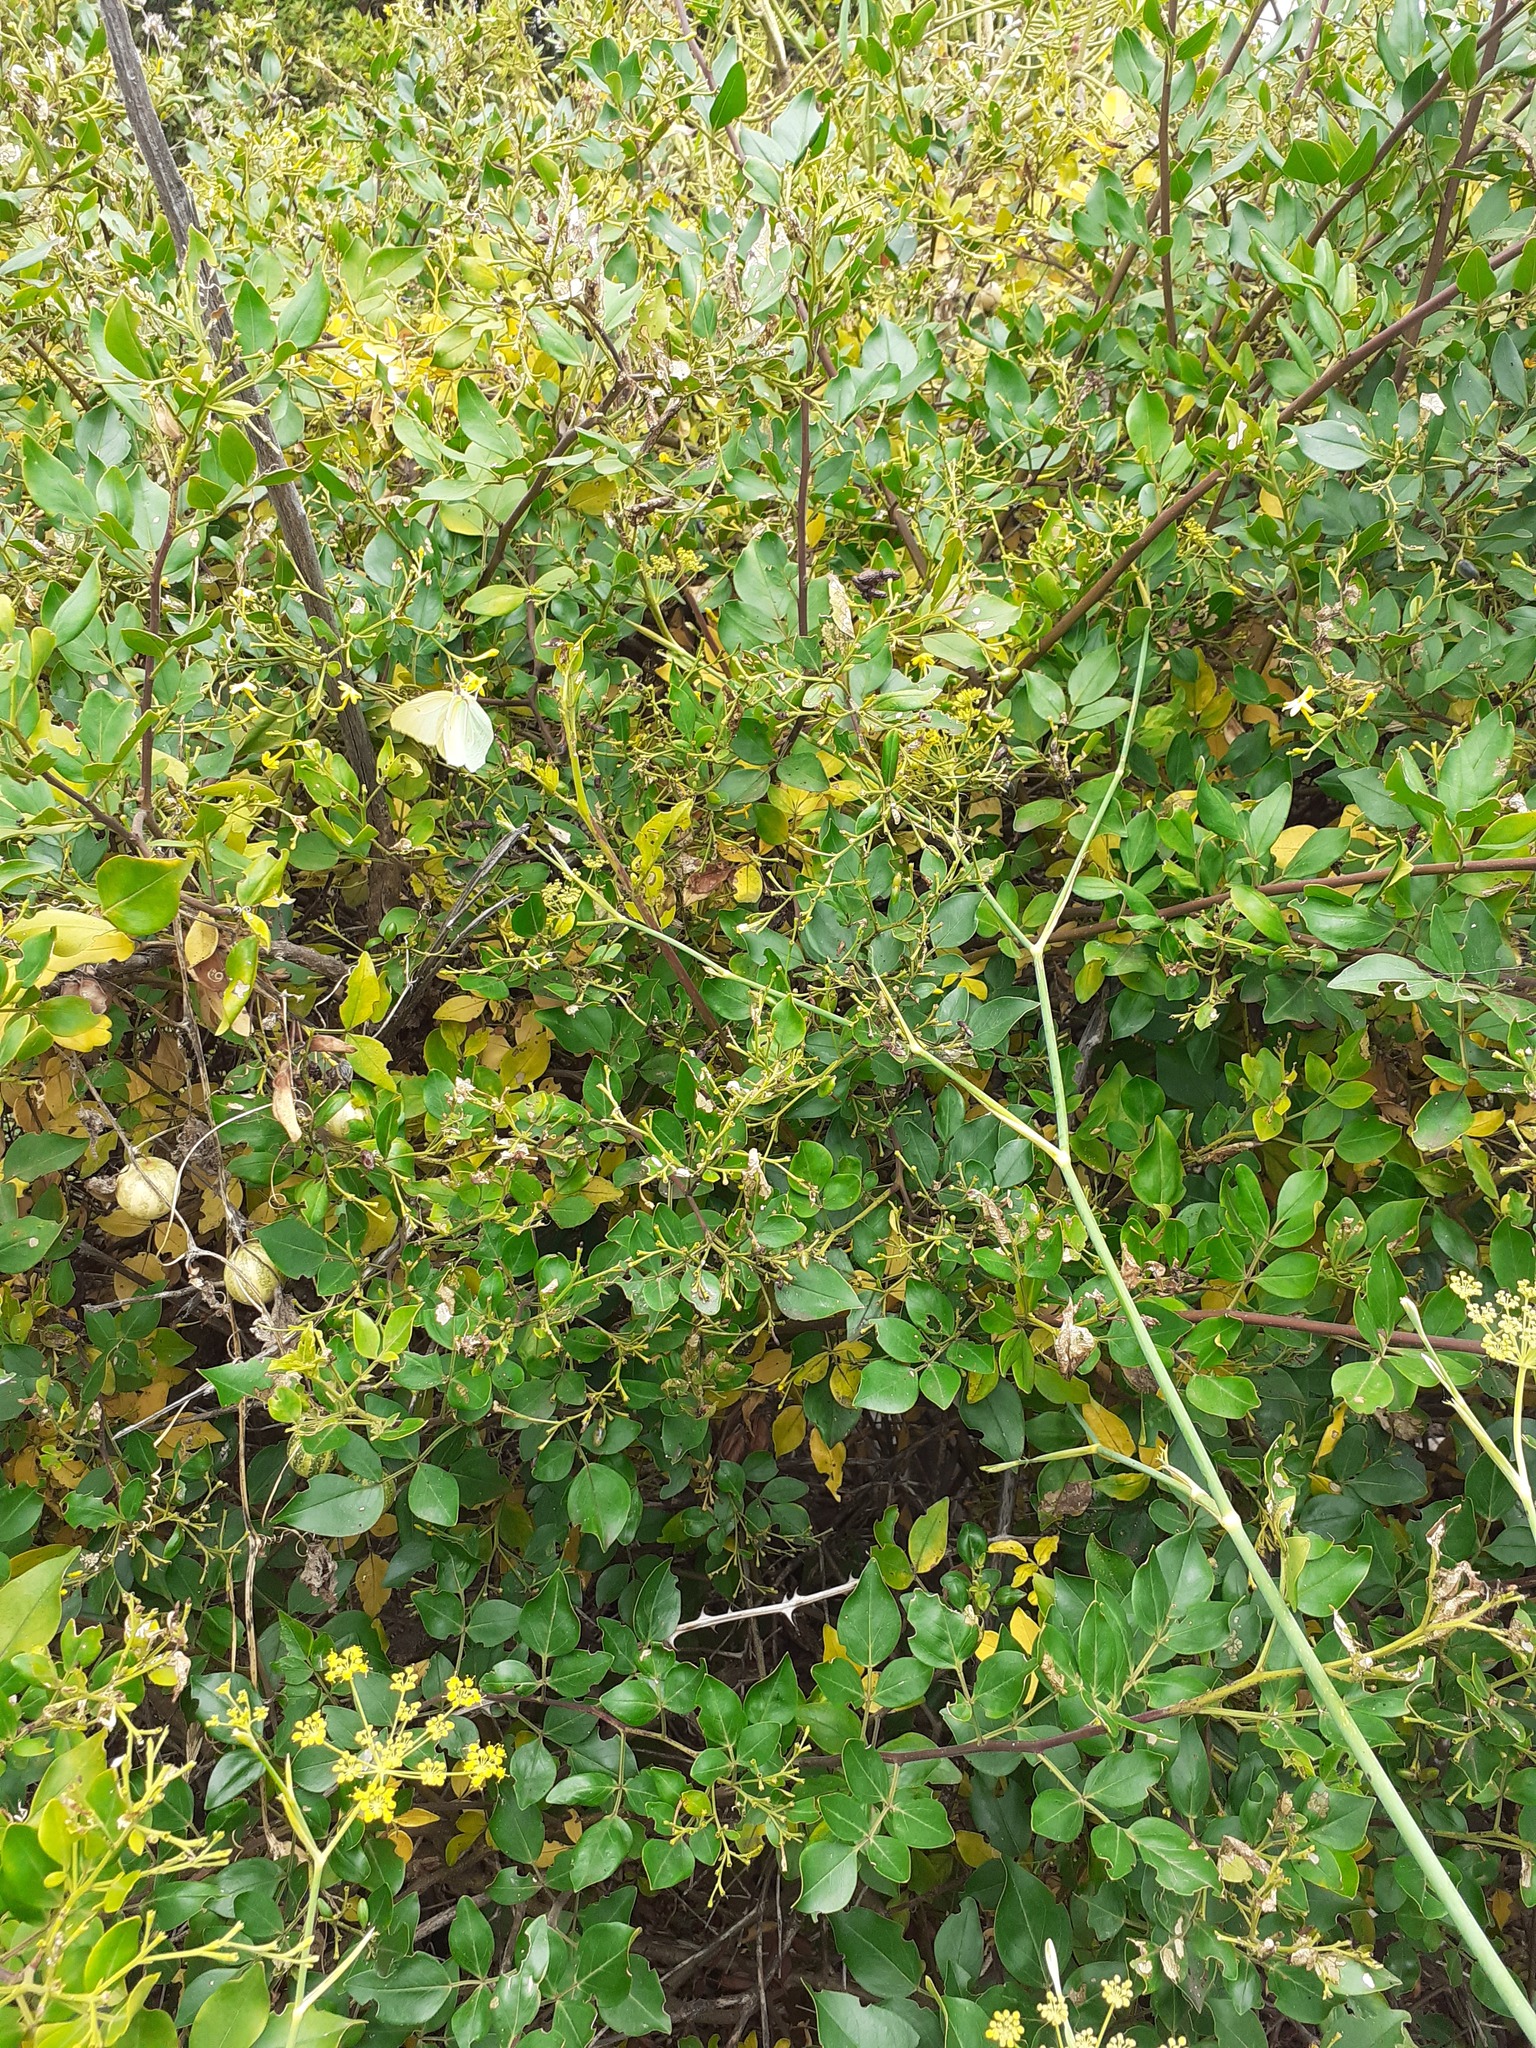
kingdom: Animalia
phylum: Arthropoda
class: Insecta
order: Lepidoptera
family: Pieridae
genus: Gonepteryx
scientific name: Gonepteryx cleobule
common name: Canary brimstone
